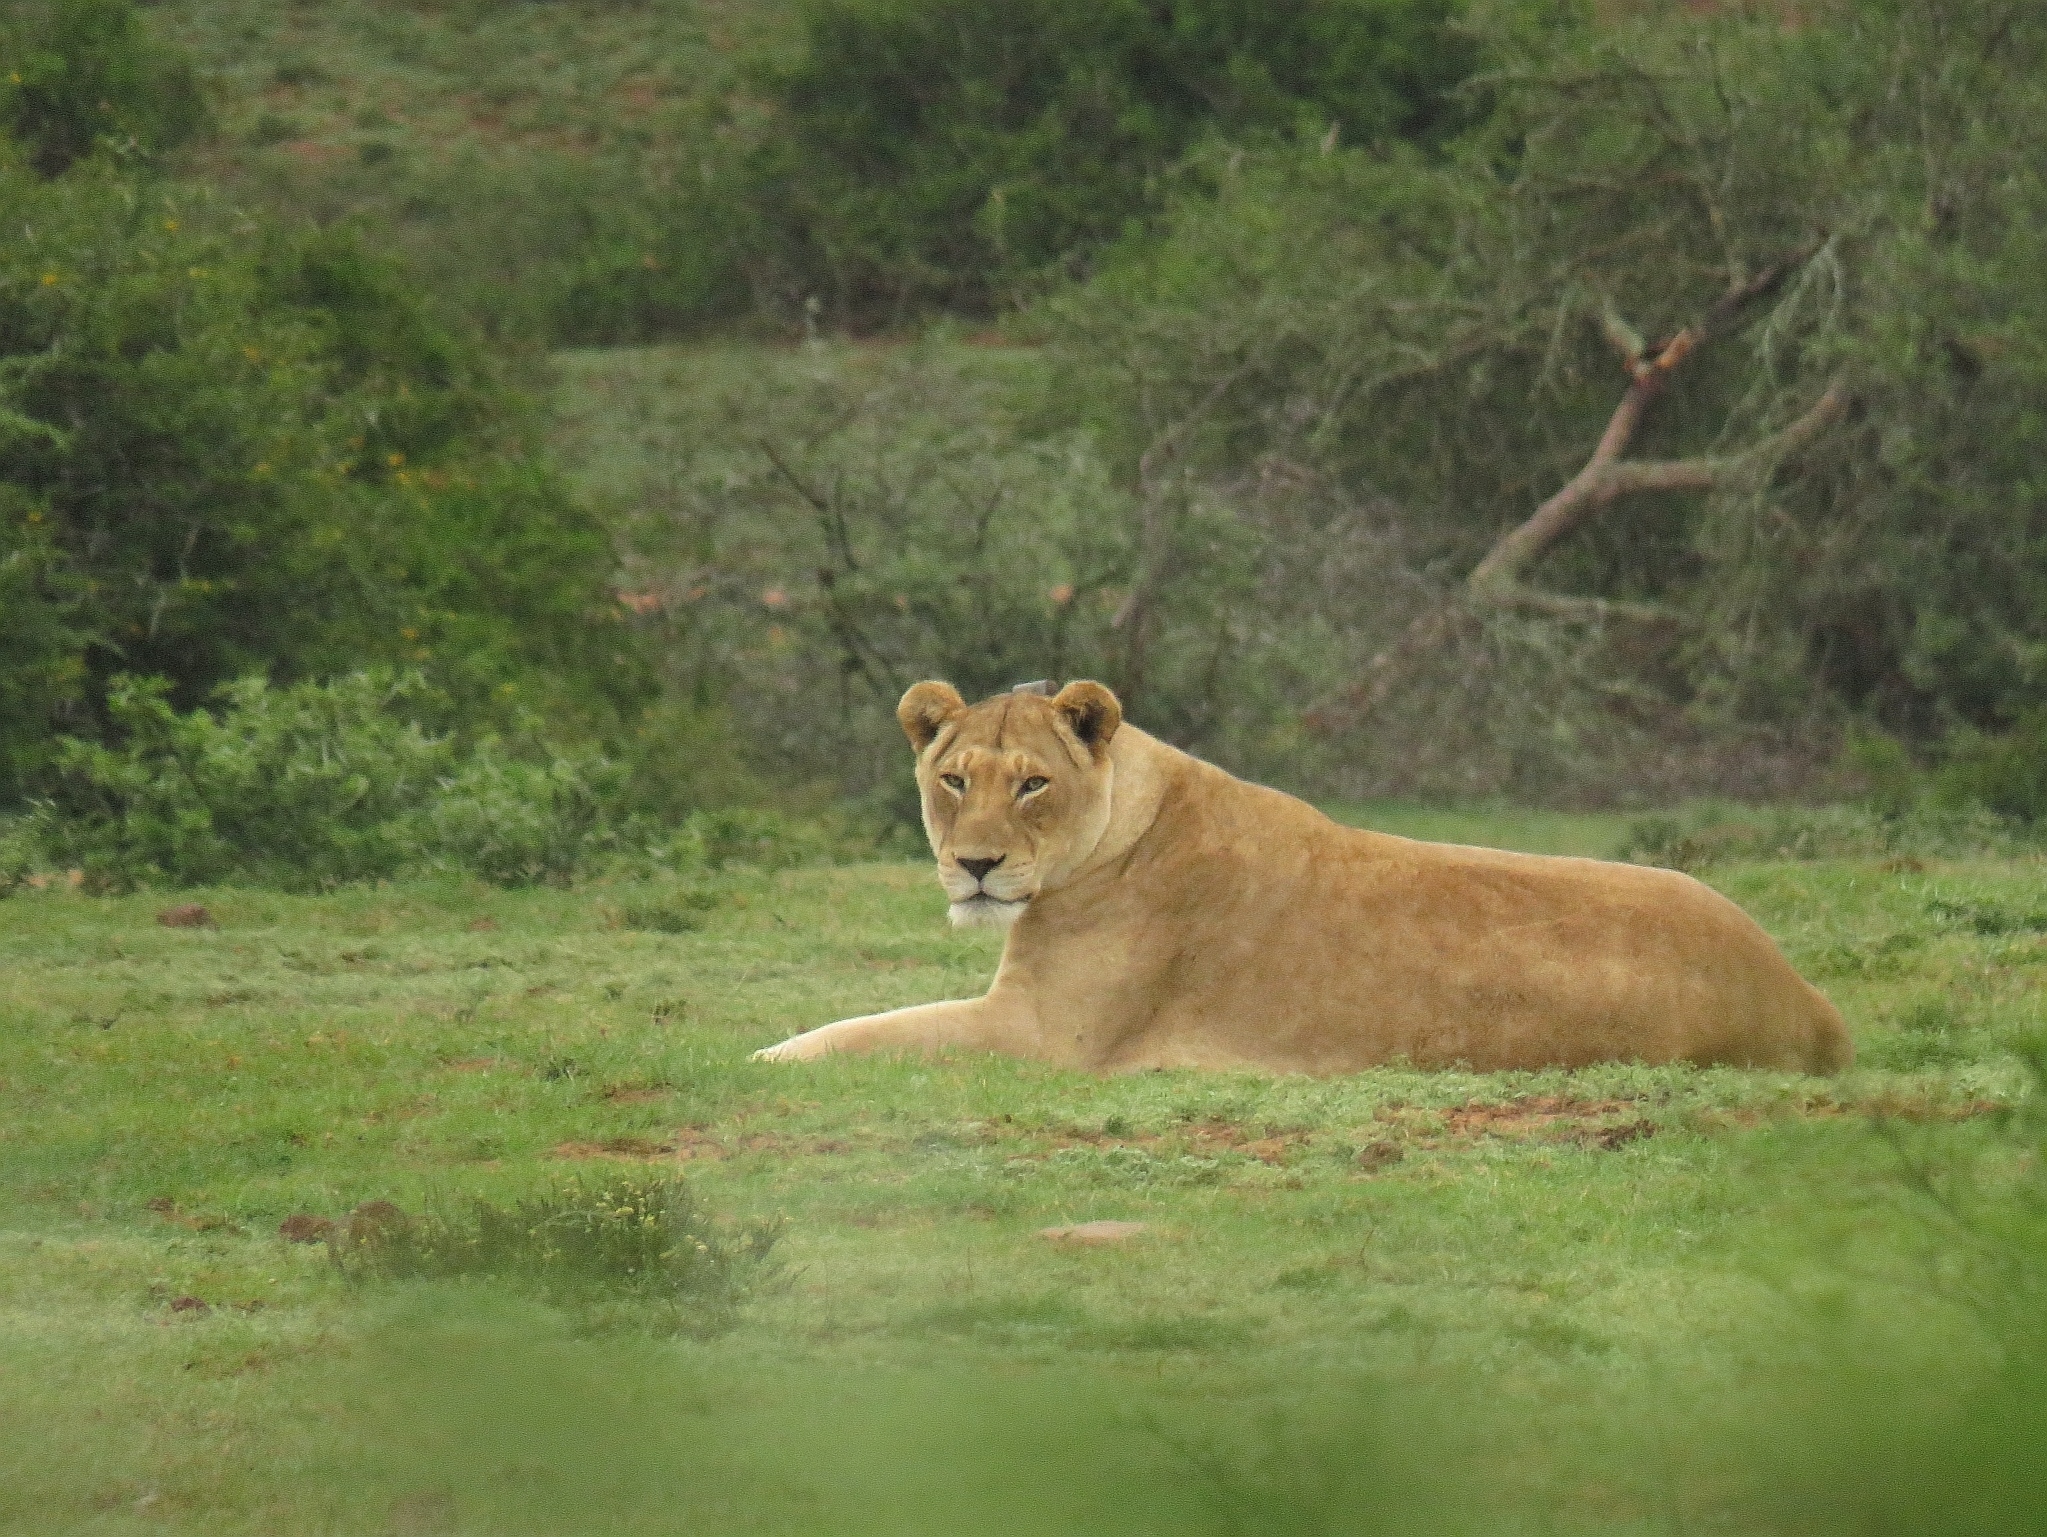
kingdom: Animalia
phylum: Chordata
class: Mammalia
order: Carnivora
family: Felidae
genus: Panthera
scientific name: Panthera leo
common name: Lion
